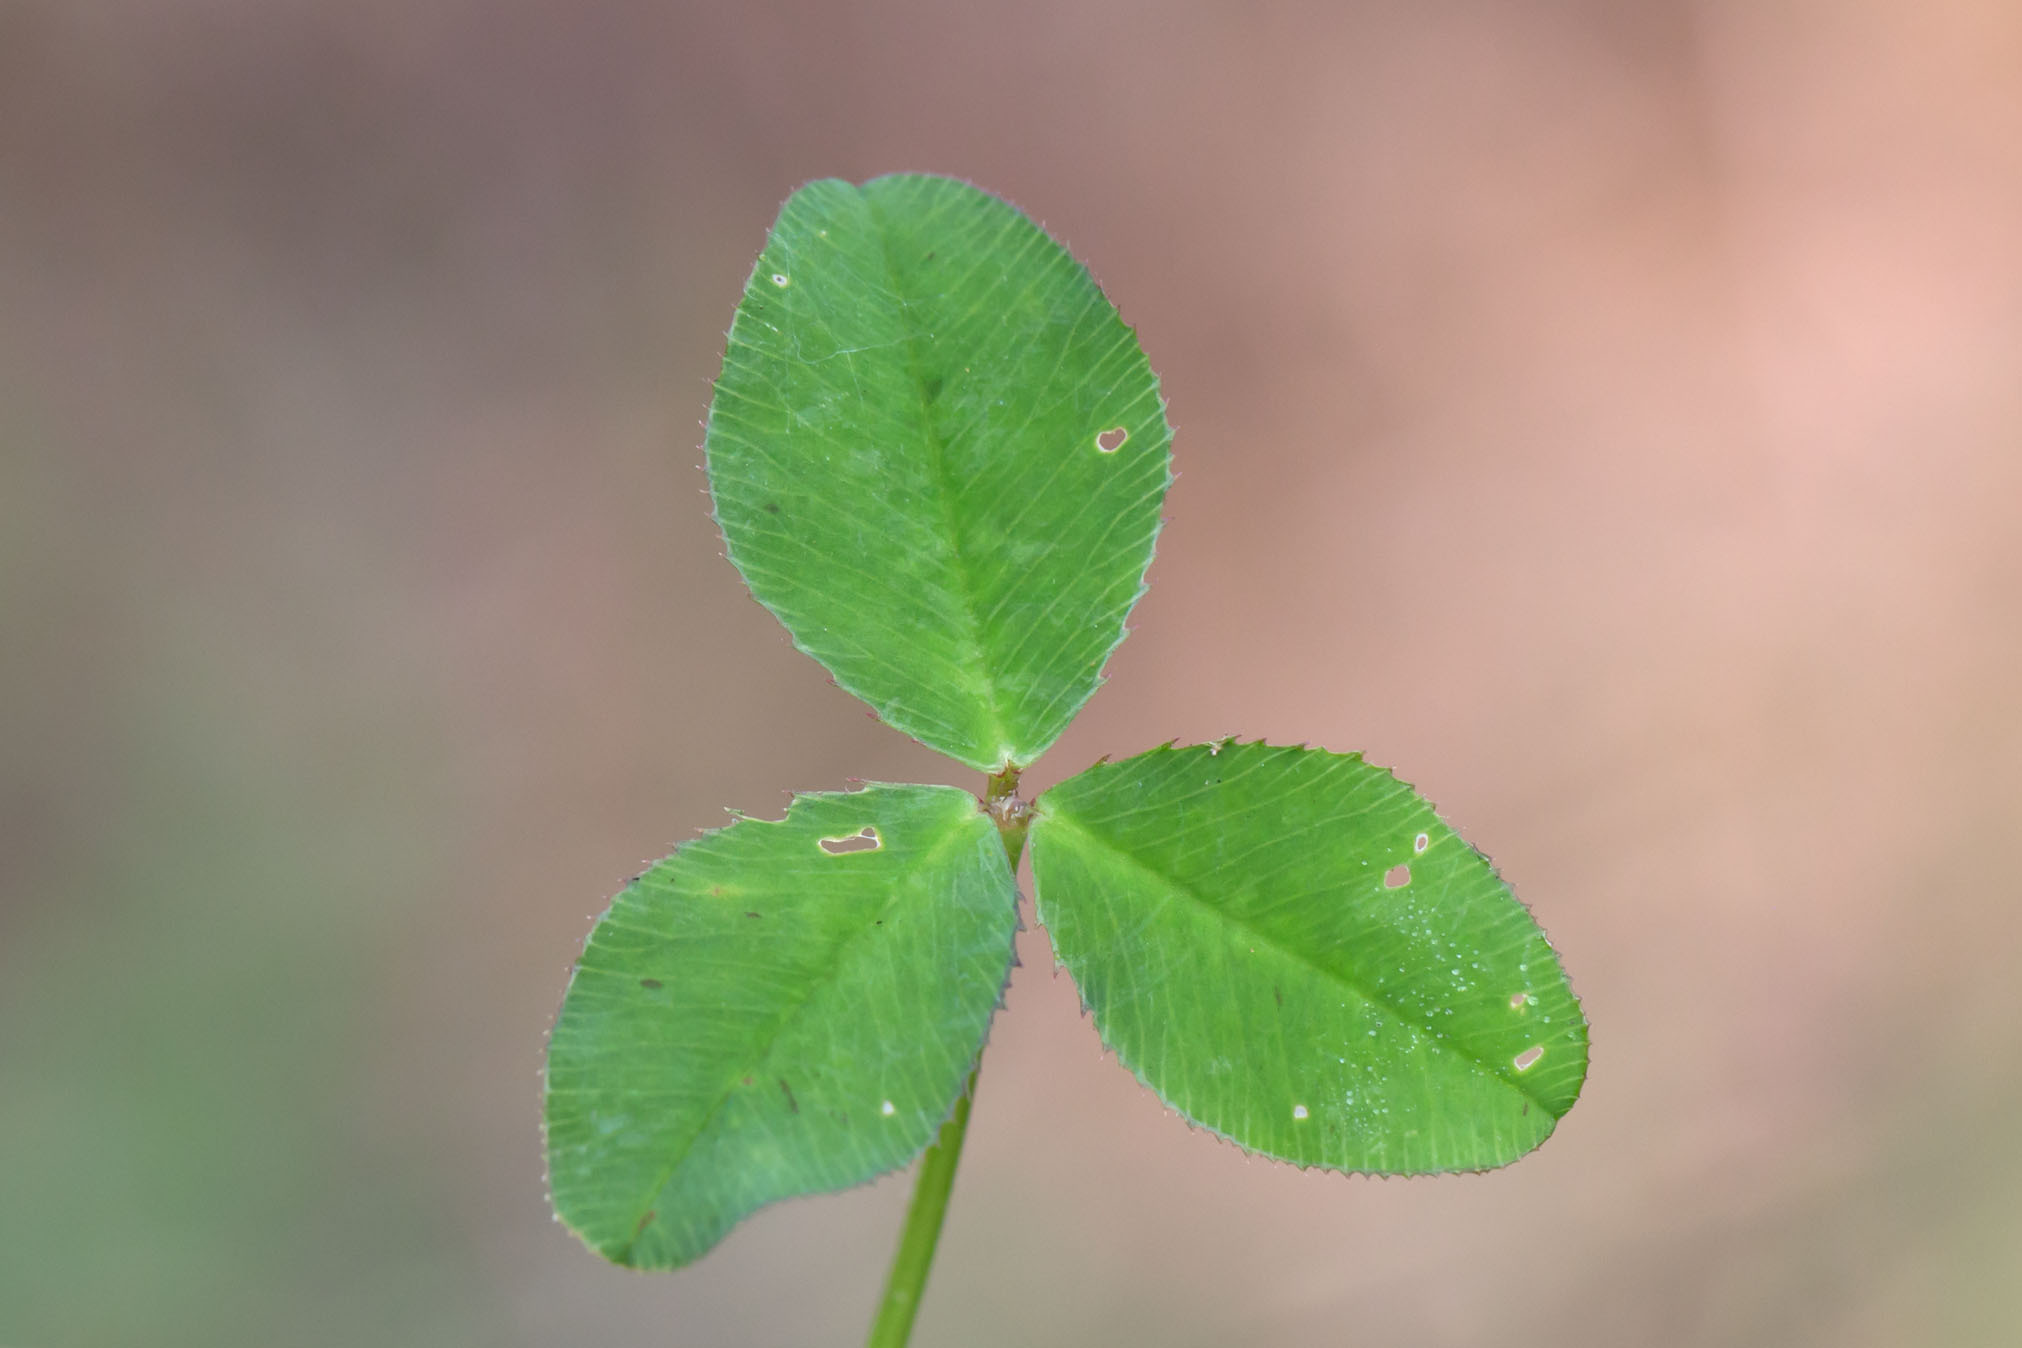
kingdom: Plantae
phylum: Tracheophyta
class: Magnoliopsida
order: Fabales
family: Fabaceae
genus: Trifolium
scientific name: Trifolium repens
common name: White clover
